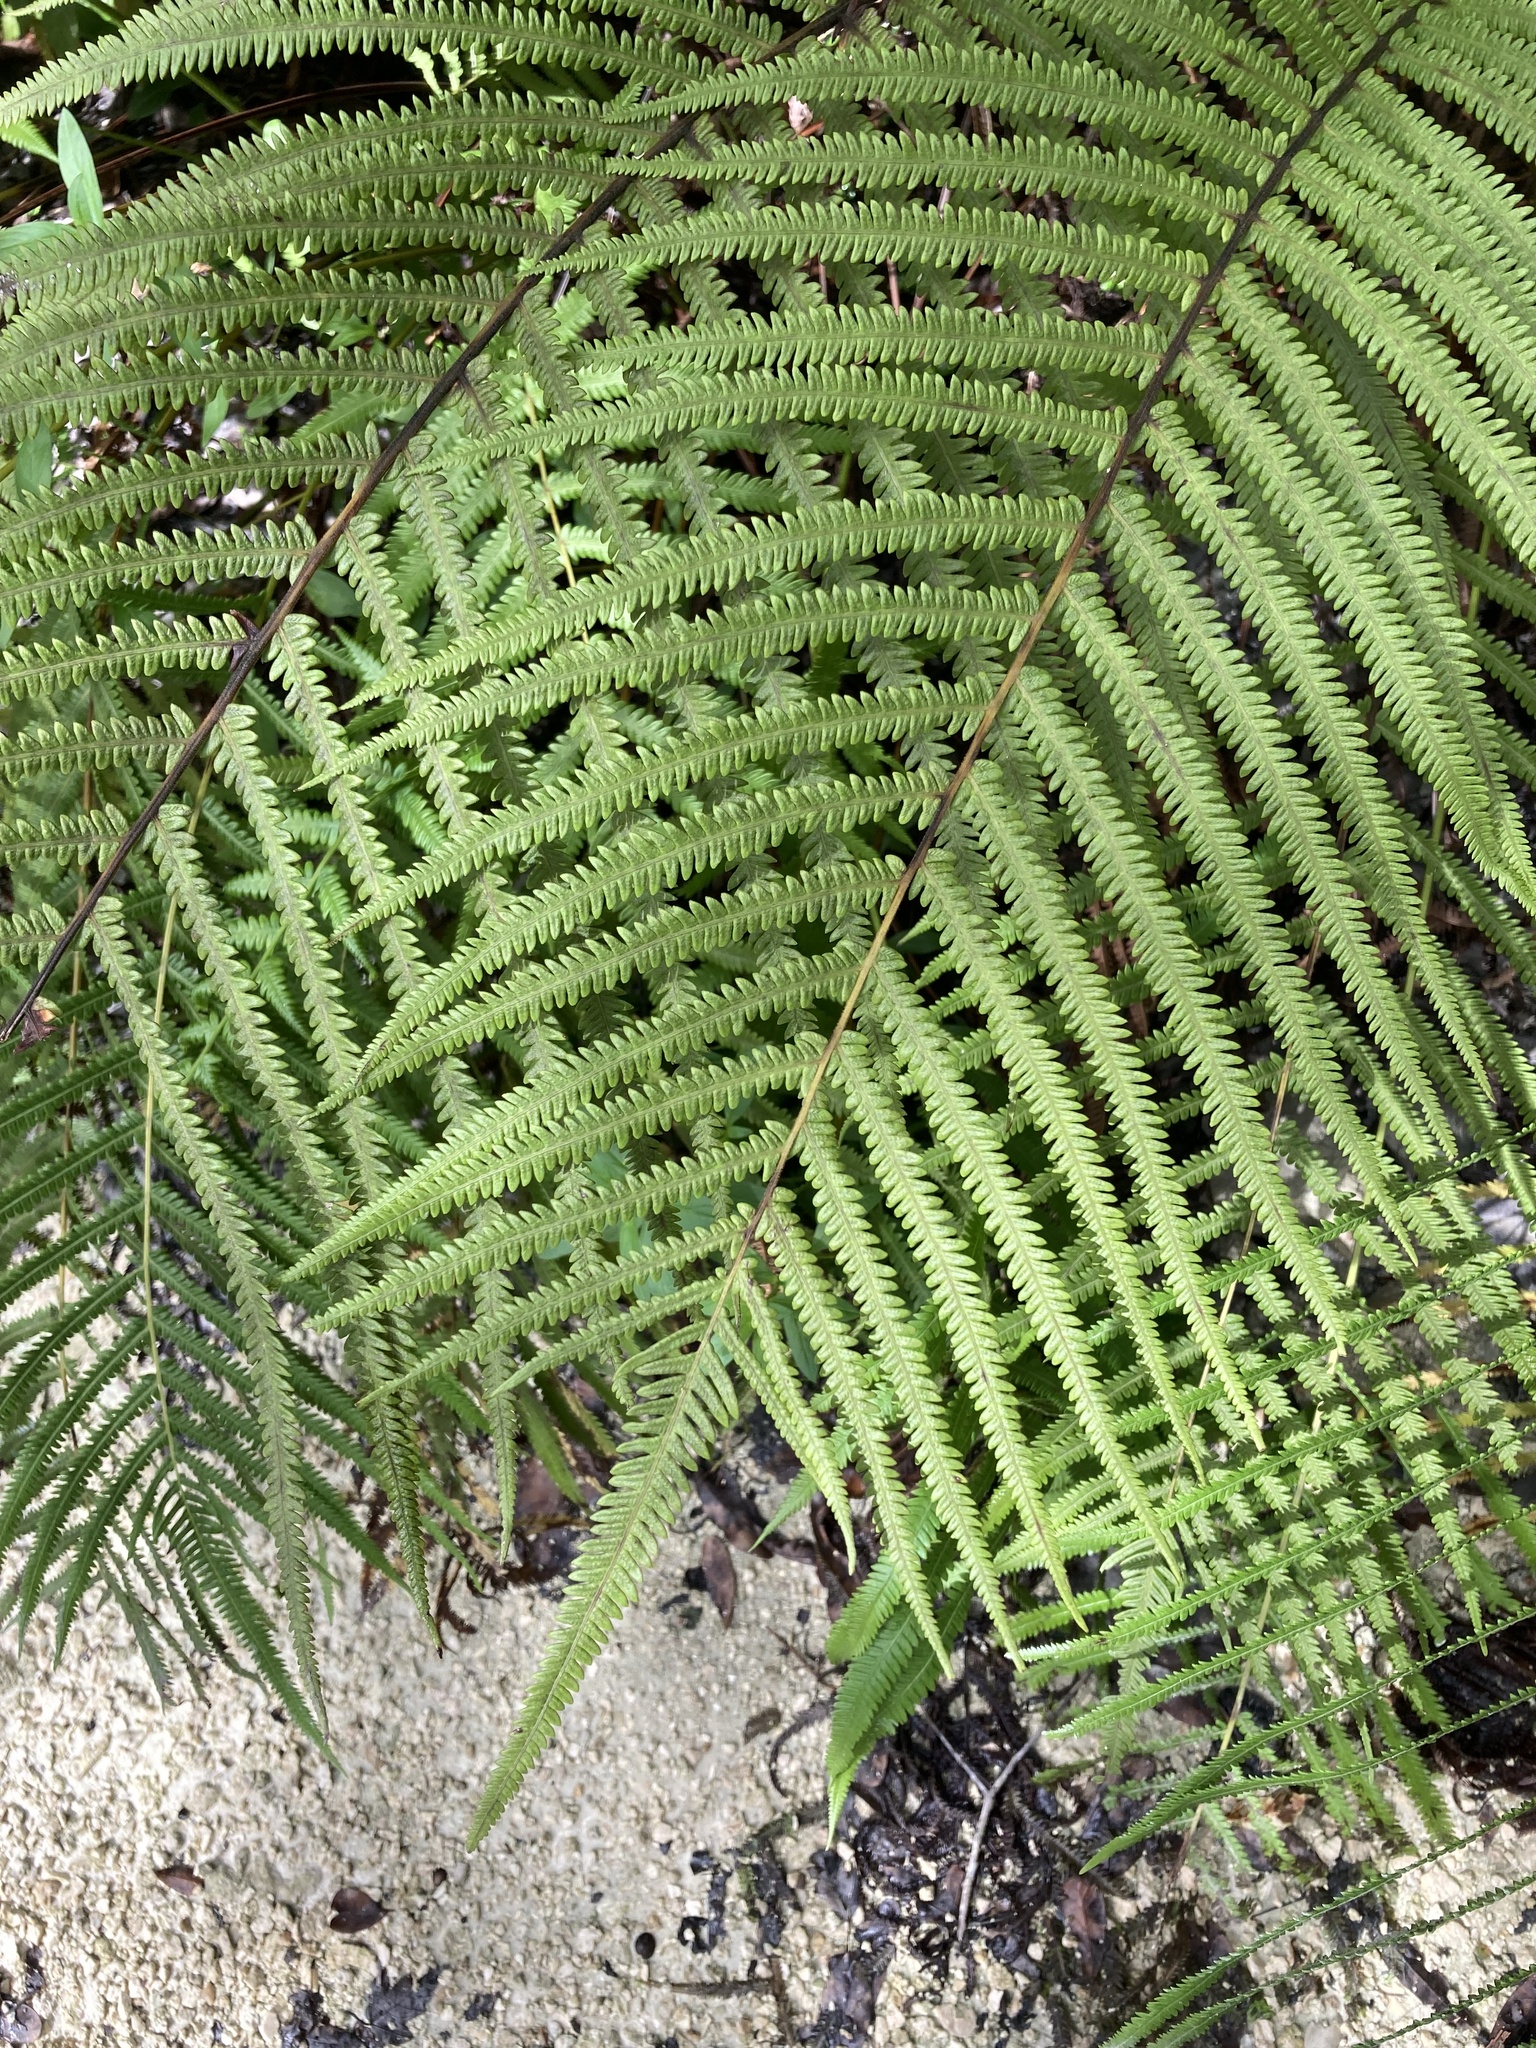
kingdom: Plantae
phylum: Tracheophyta
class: Polypodiopsida
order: Polypodiales
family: Thelypteridaceae
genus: Pelazoneuron
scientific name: Pelazoneuron augescens
